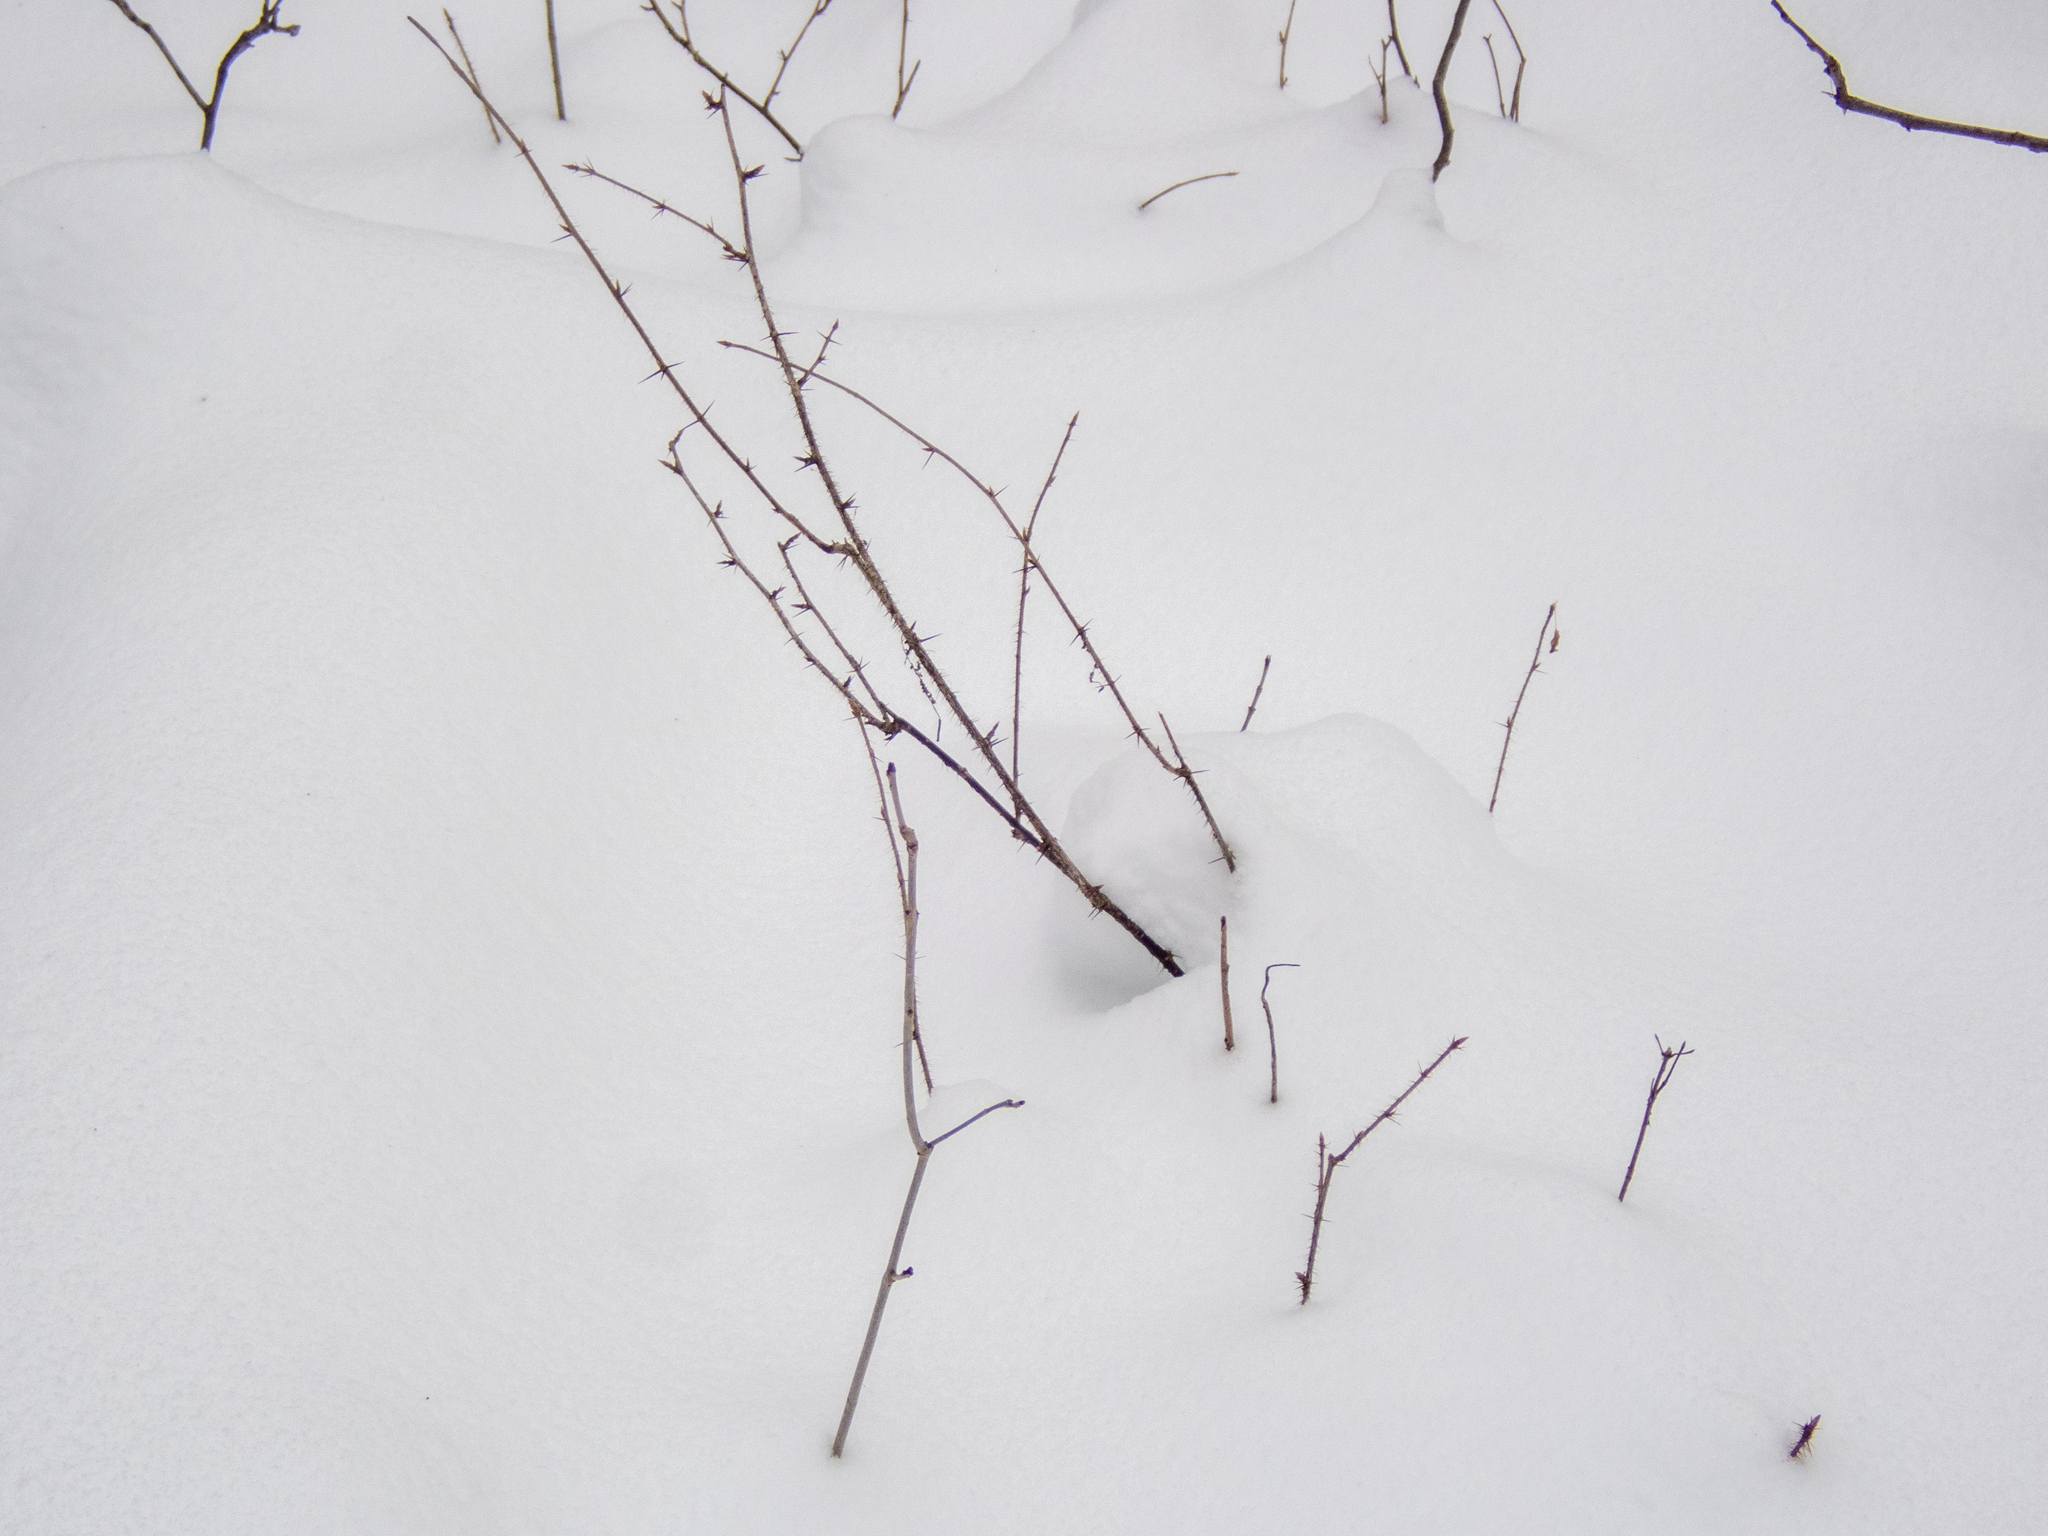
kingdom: Plantae
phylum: Tracheophyta
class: Magnoliopsida
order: Saxifragales
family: Grossulariaceae
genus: Ribes
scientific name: Ribes cynosbati
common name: American gooseberry
